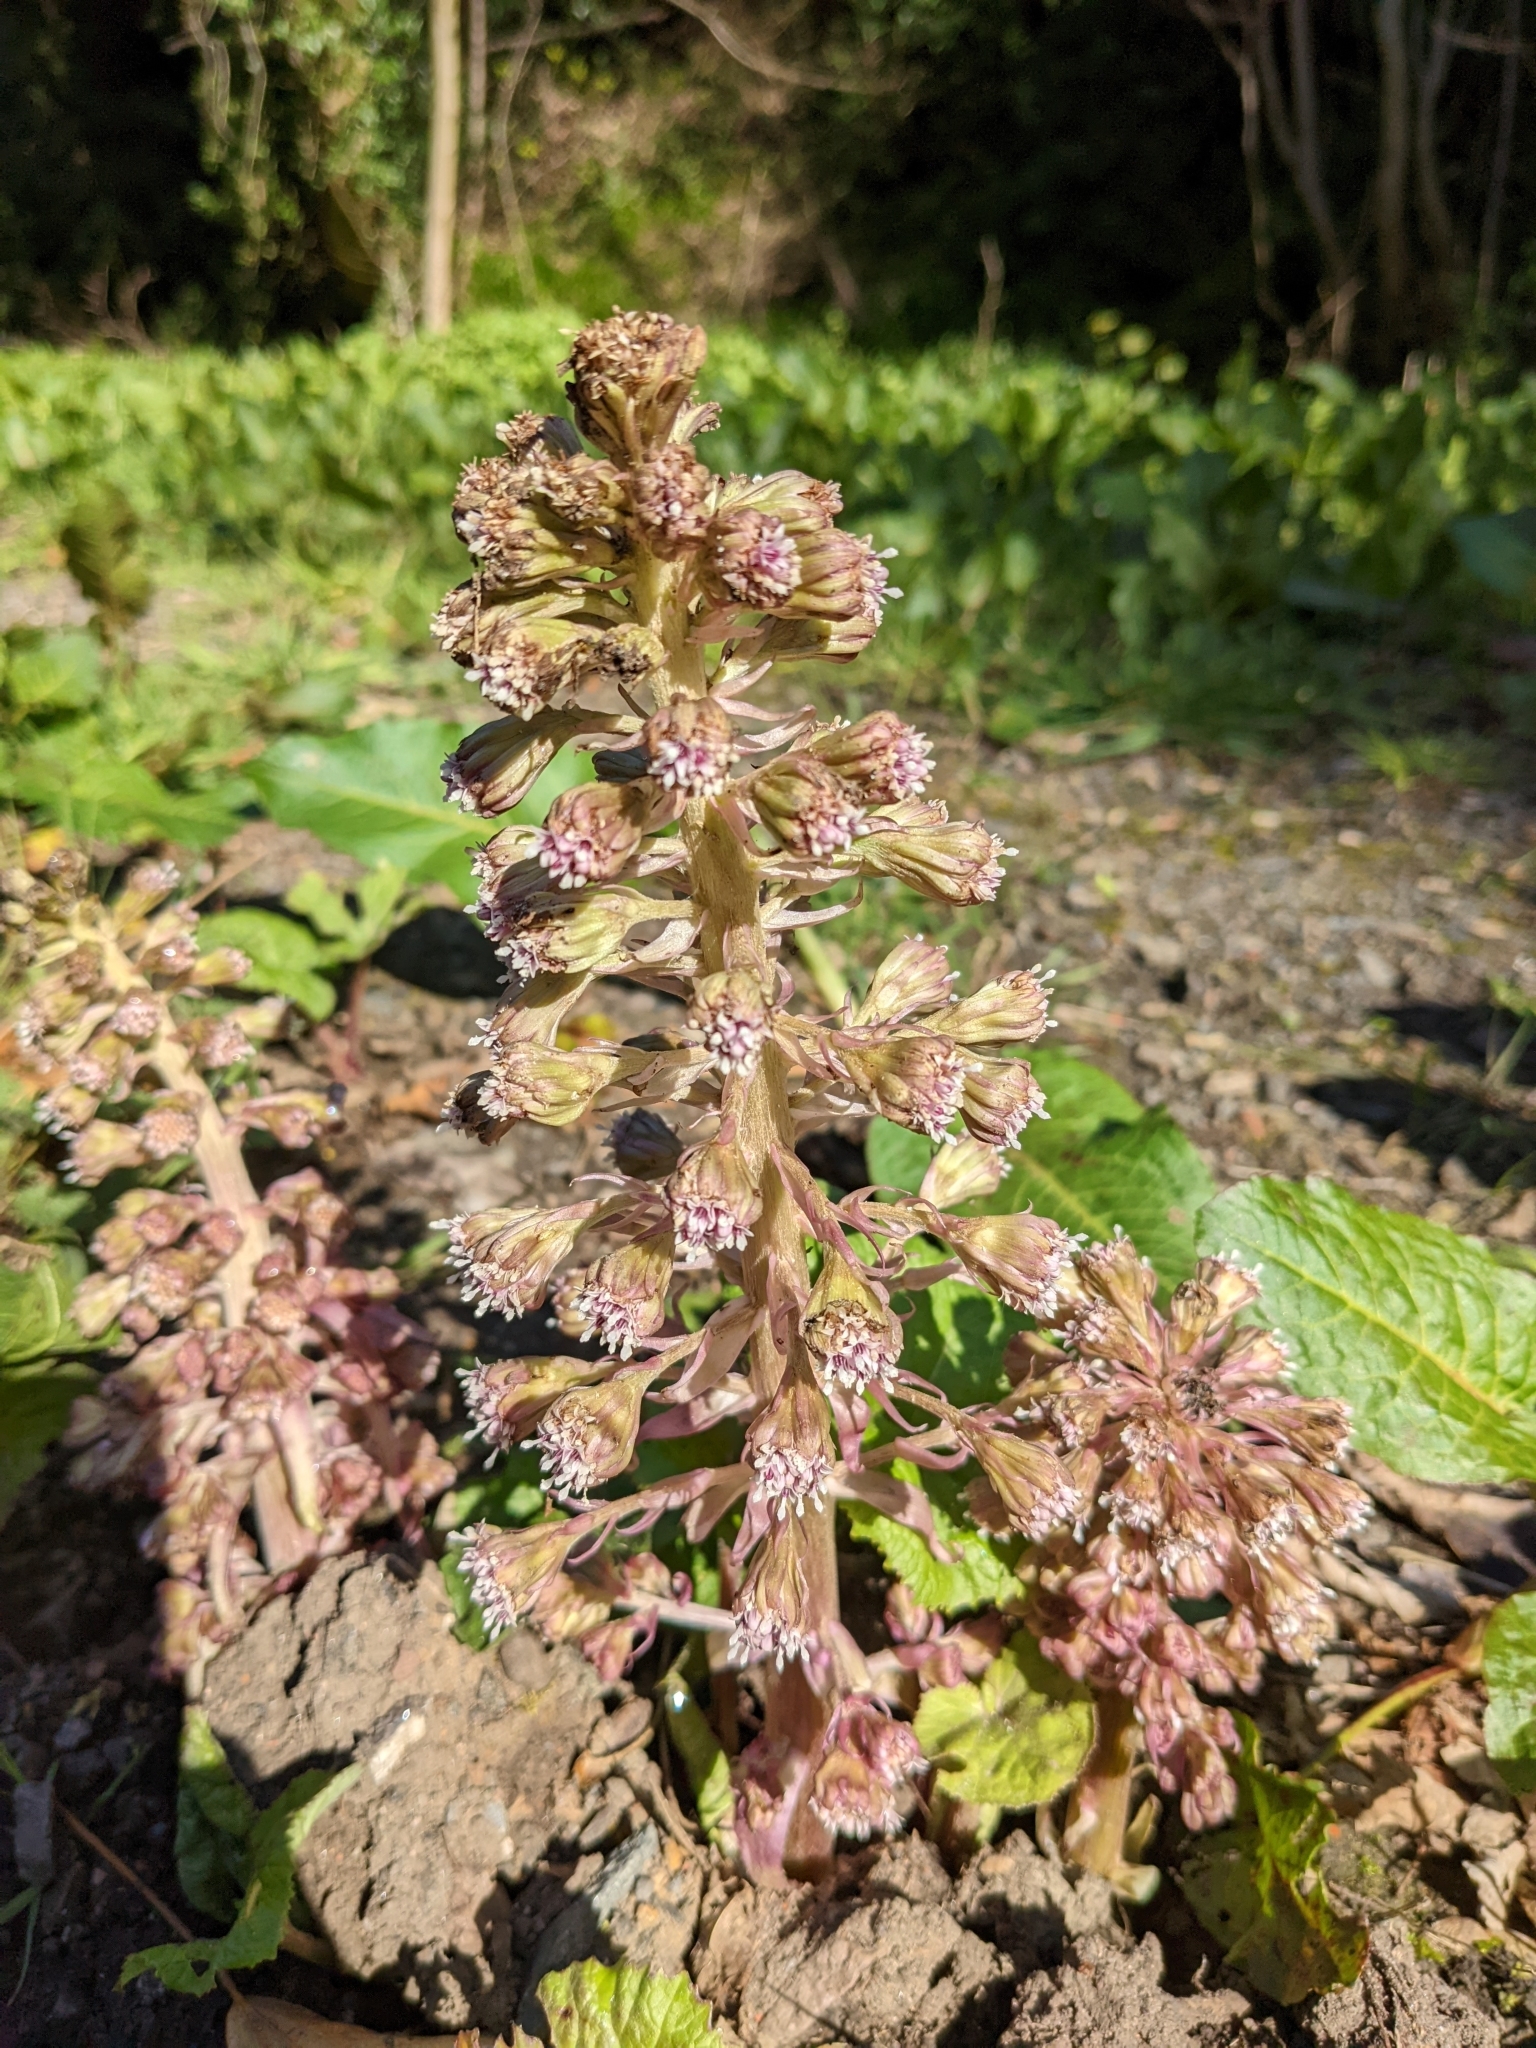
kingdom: Plantae
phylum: Tracheophyta
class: Magnoliopsida
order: Asterales
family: Asteraceae
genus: Petasites
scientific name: Petasites hybridus
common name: Butterbur
